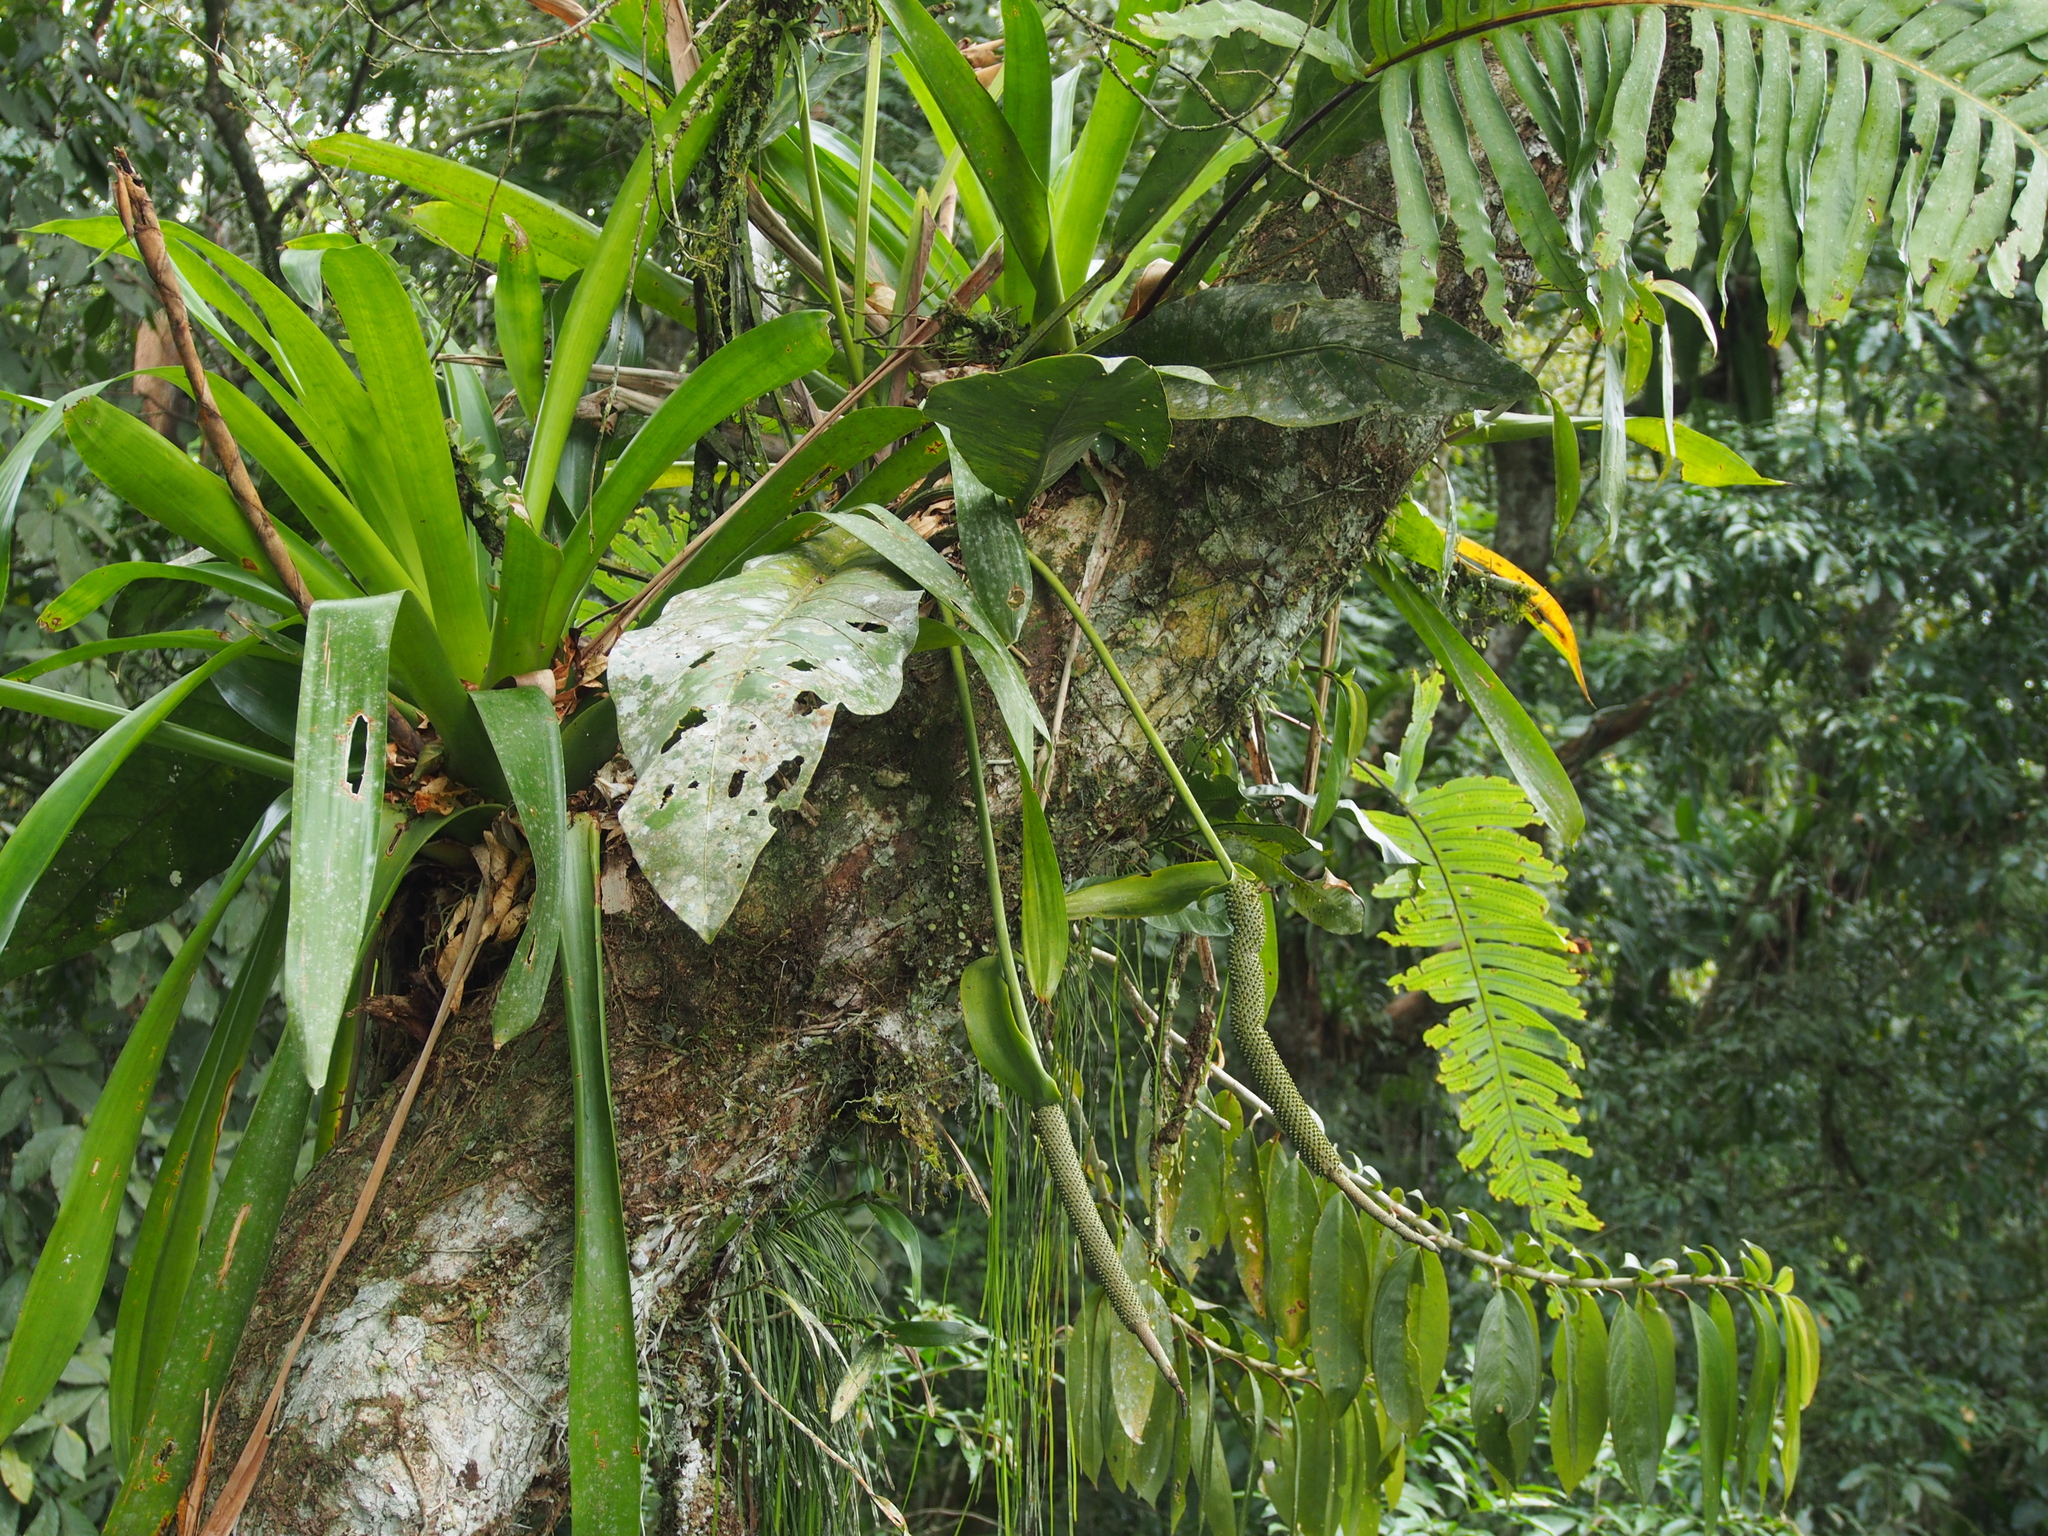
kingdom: Plantae
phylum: Tracheophyta
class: Liliopsida
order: Alismatales
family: Araceae
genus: Anthurium
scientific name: Anthurium upalaense
